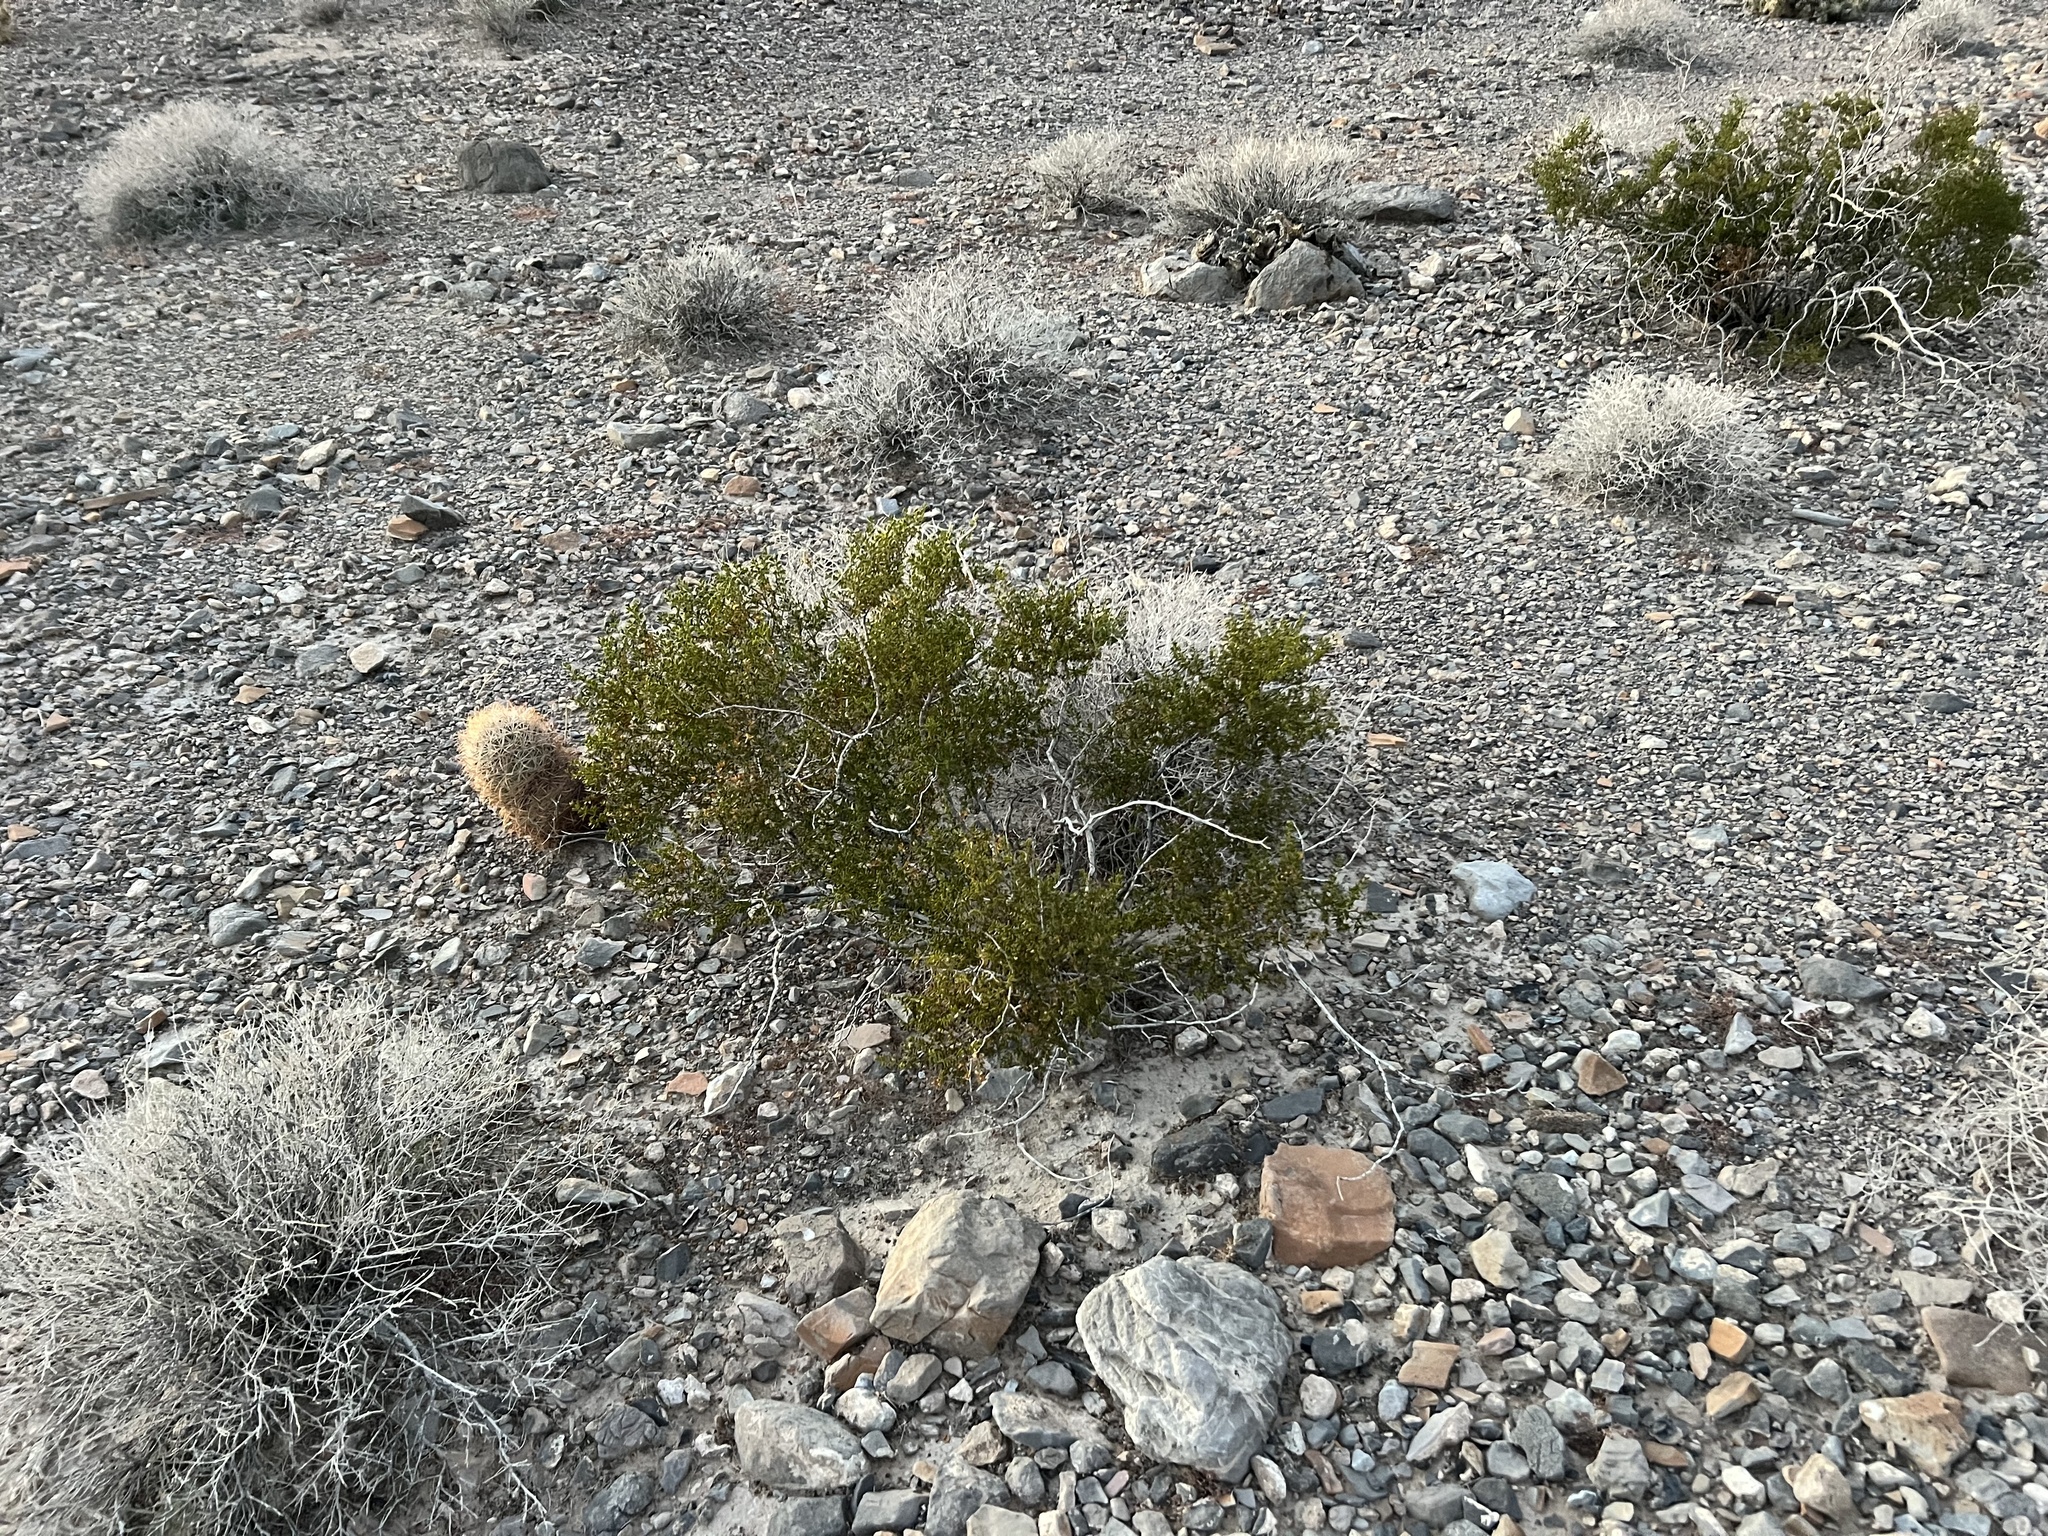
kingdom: Plantae
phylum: Tracheophyta
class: Magnoliopsida
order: Zygophyllales
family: Zygophyllaceae
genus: Larrea
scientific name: Larrea tridentata
